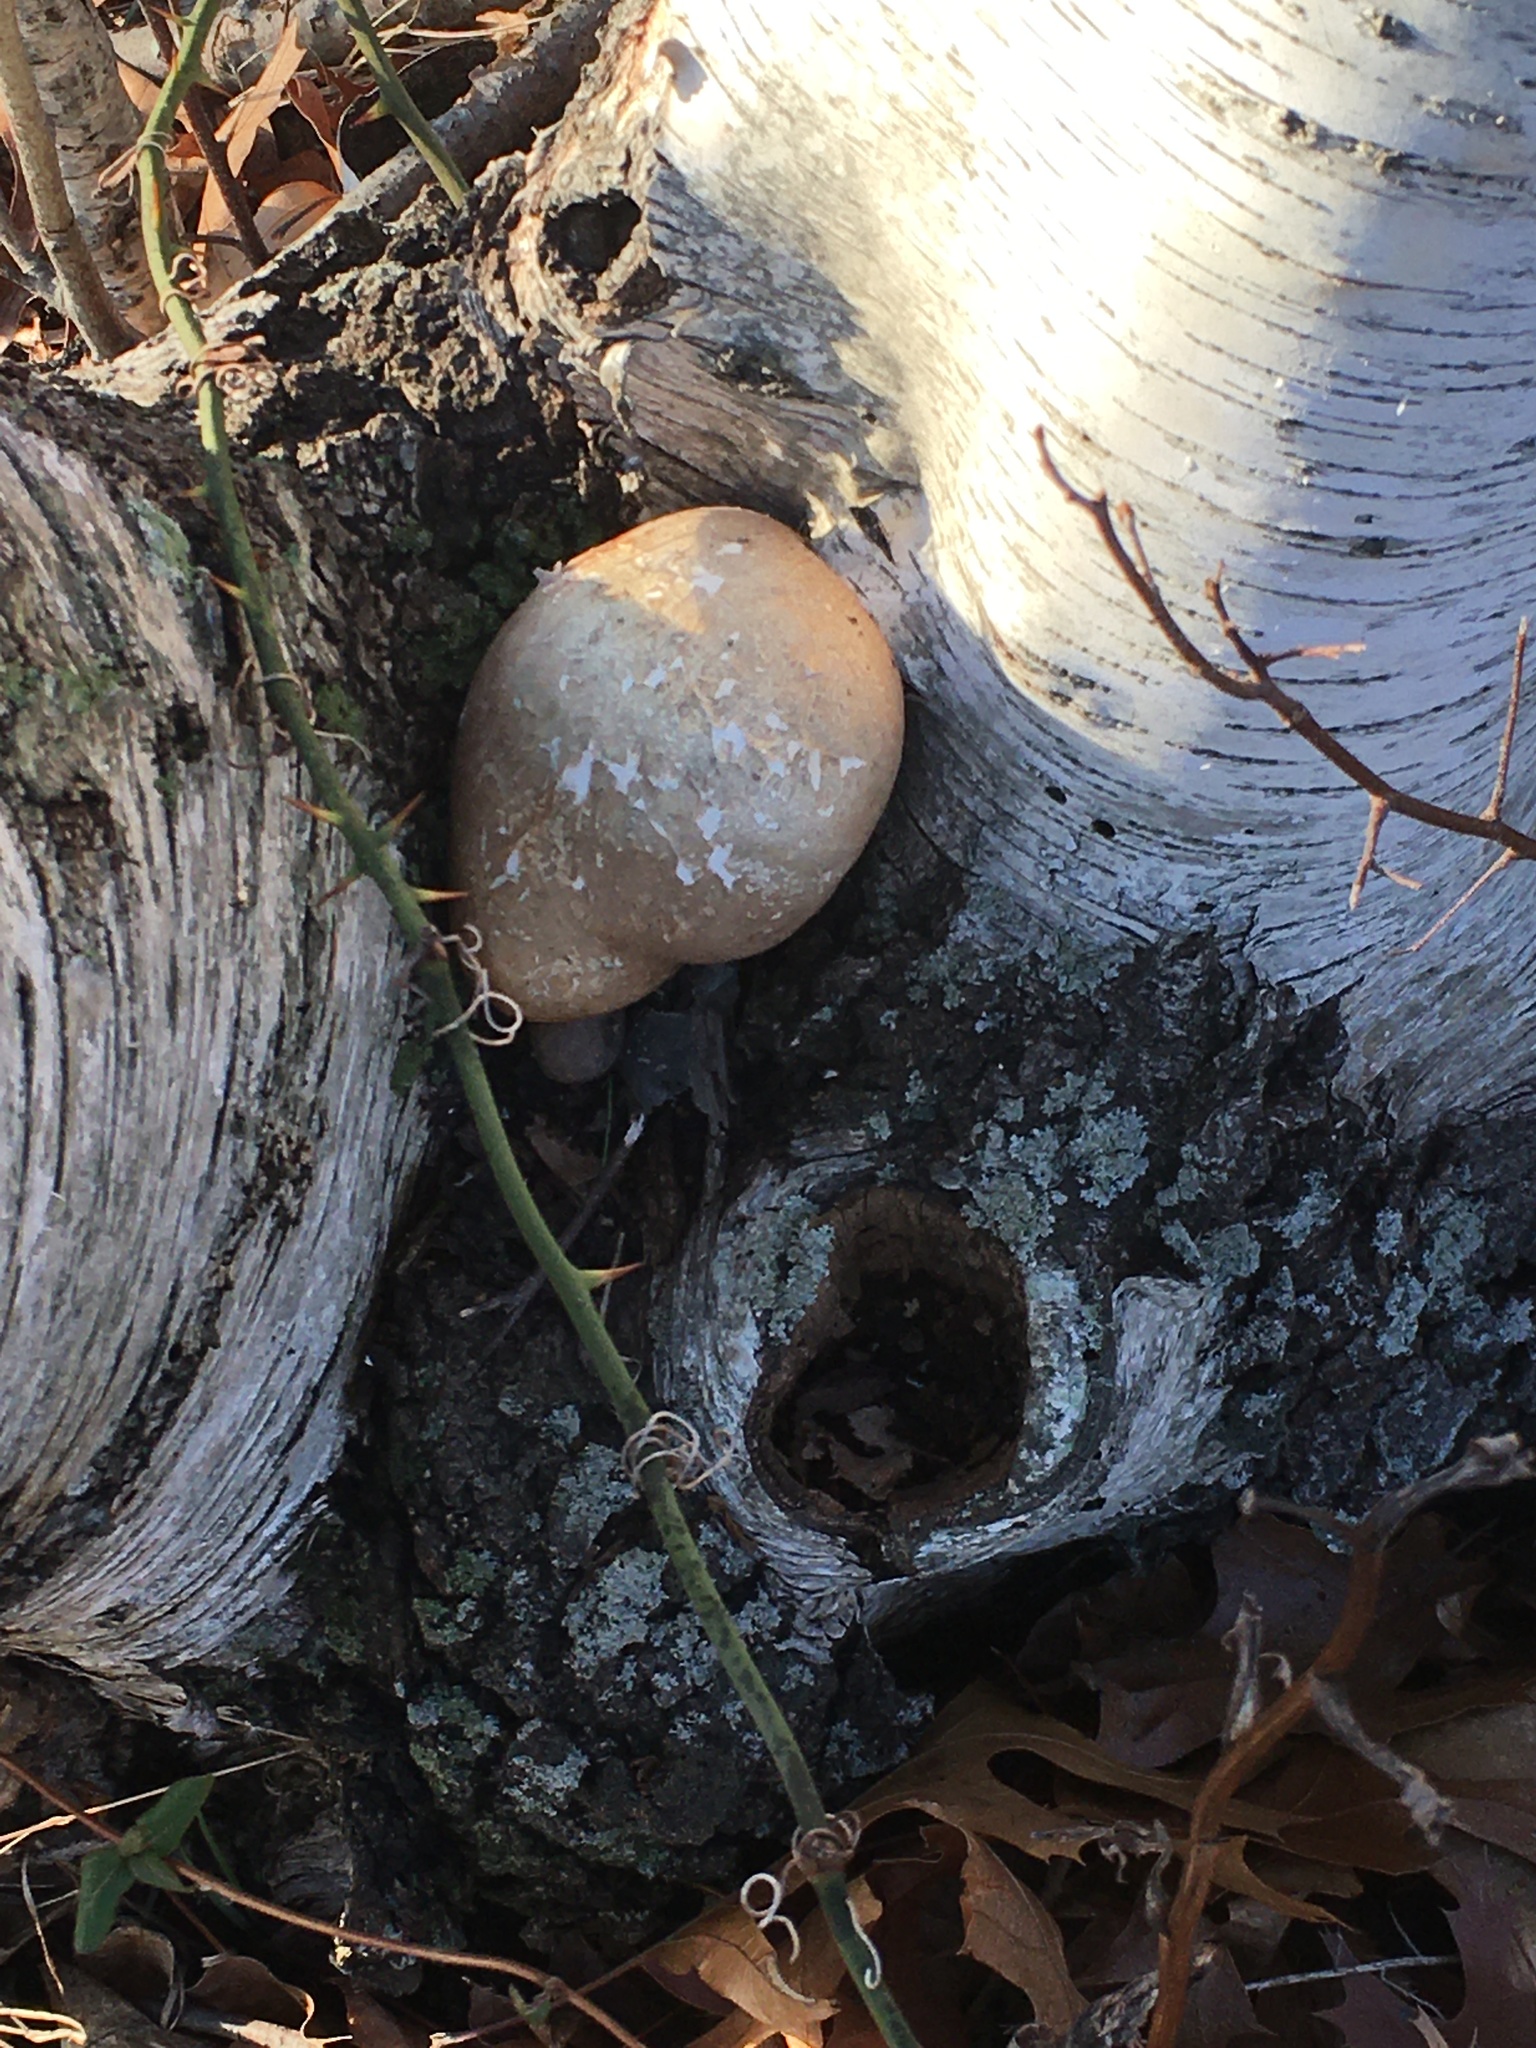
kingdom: Fungi
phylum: Basidiomycota
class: Agaricomycetes
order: Polyporales
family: Fomitopsidaceae
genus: Fomitopsis
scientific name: Fomitopsis betulina
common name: Birch polypore
